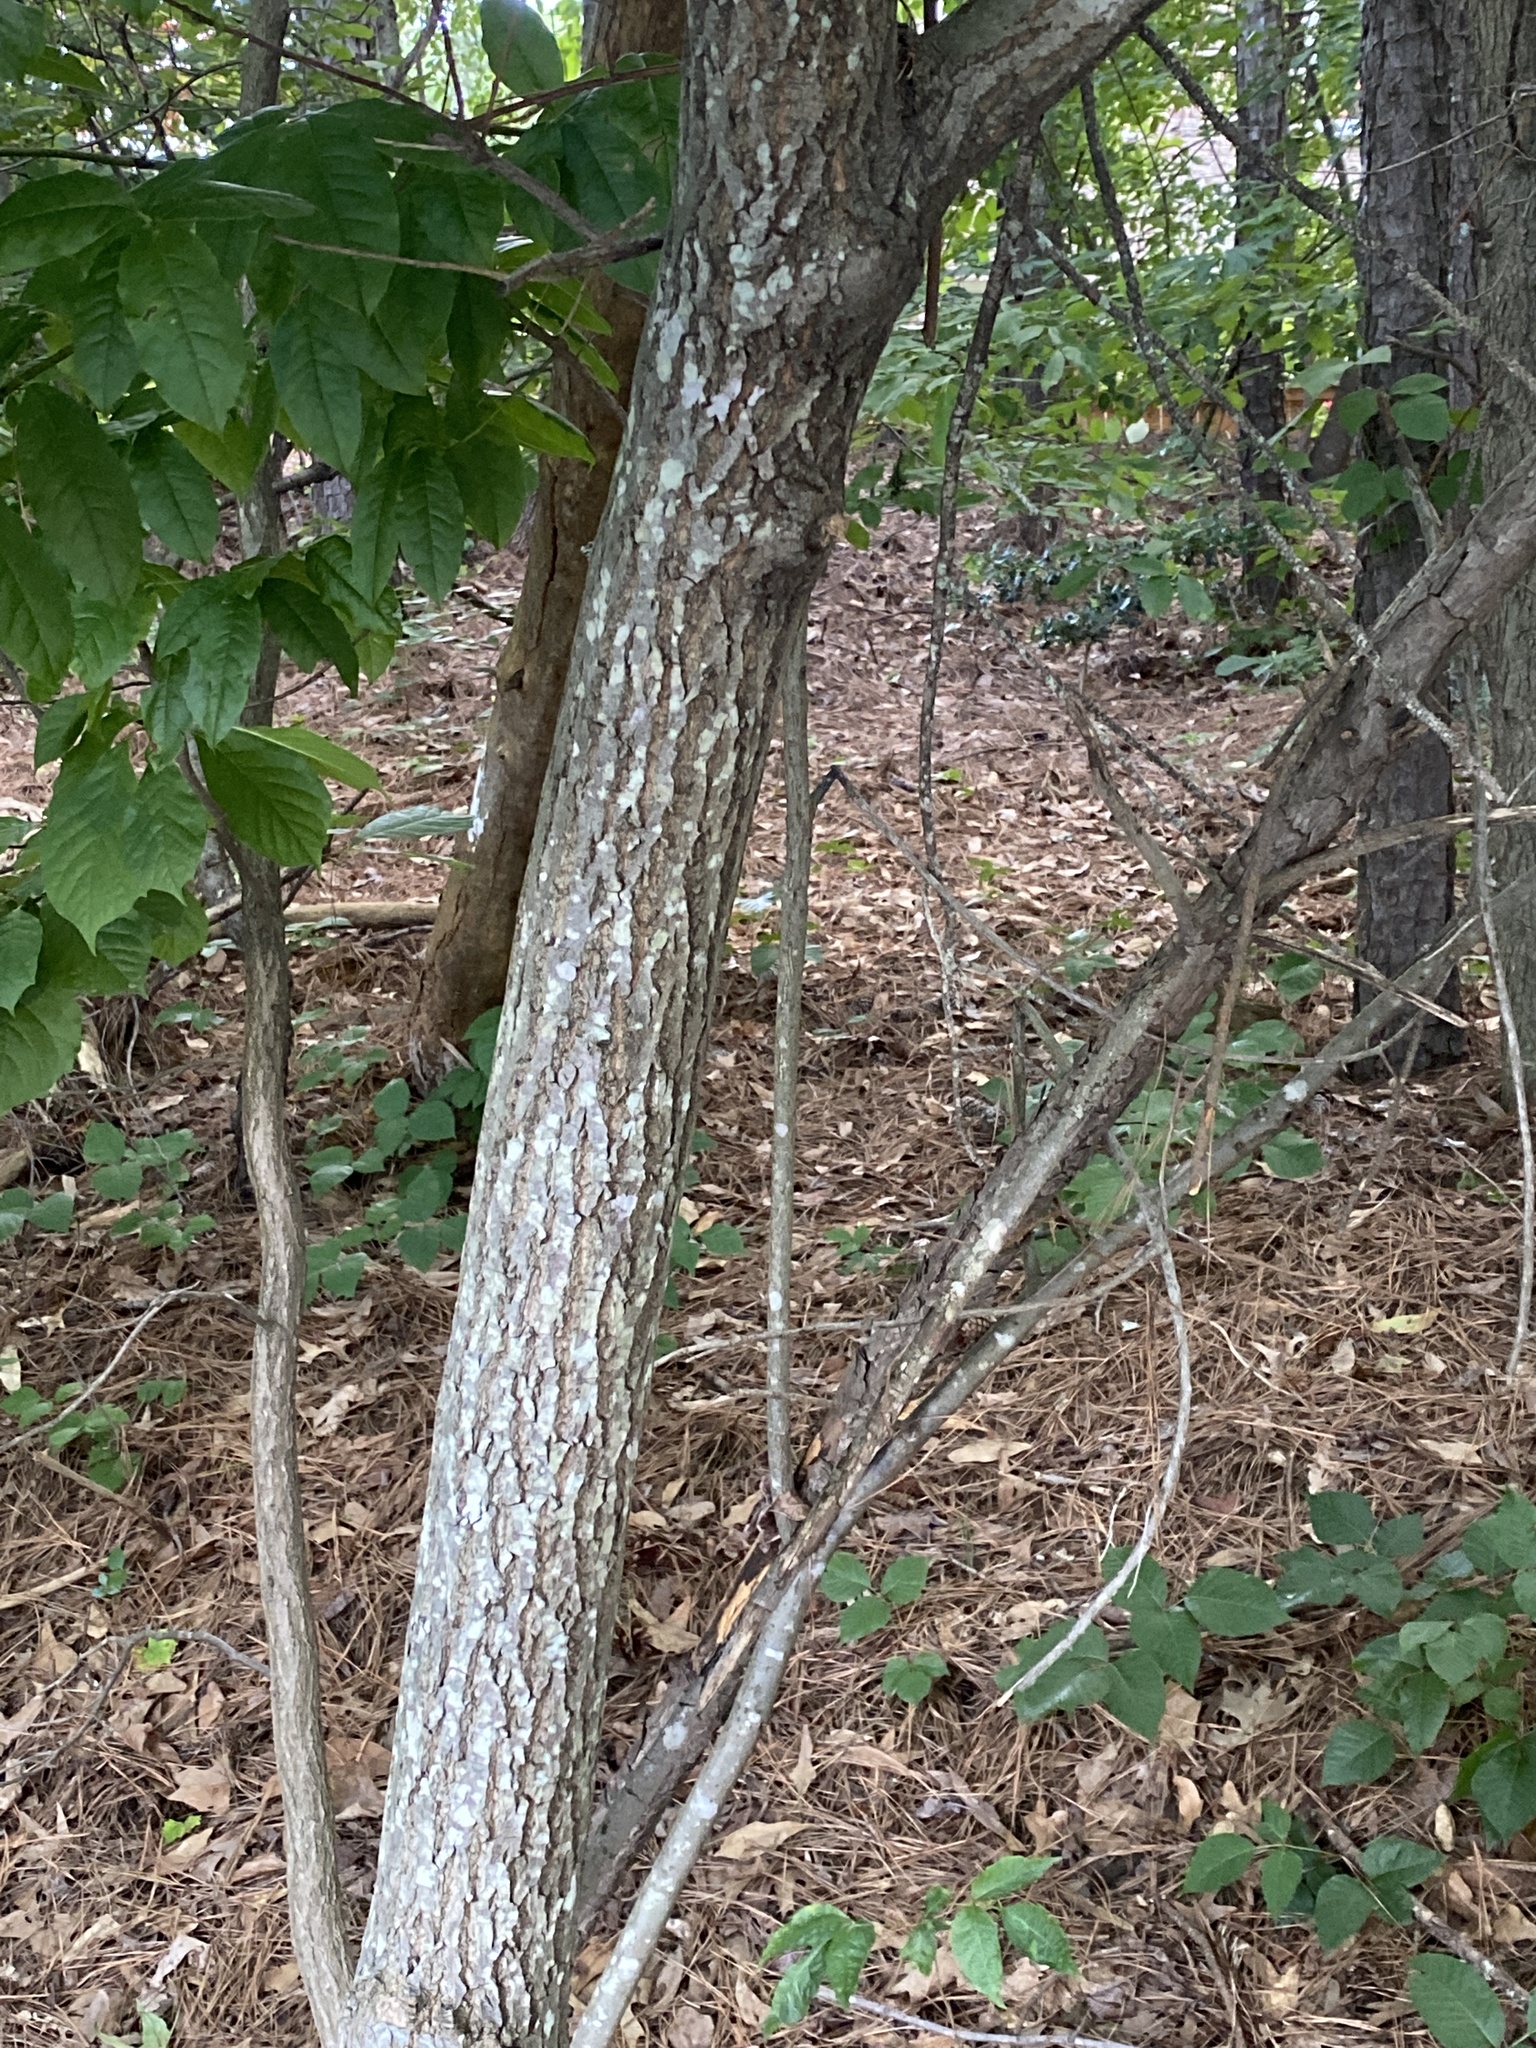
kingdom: Plantae
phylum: Tracheophyta
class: Magnoliopsida
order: Ericales
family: Ericaceae
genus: Oxydendrum
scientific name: Oxydendrum arboreum
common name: Sourwood
